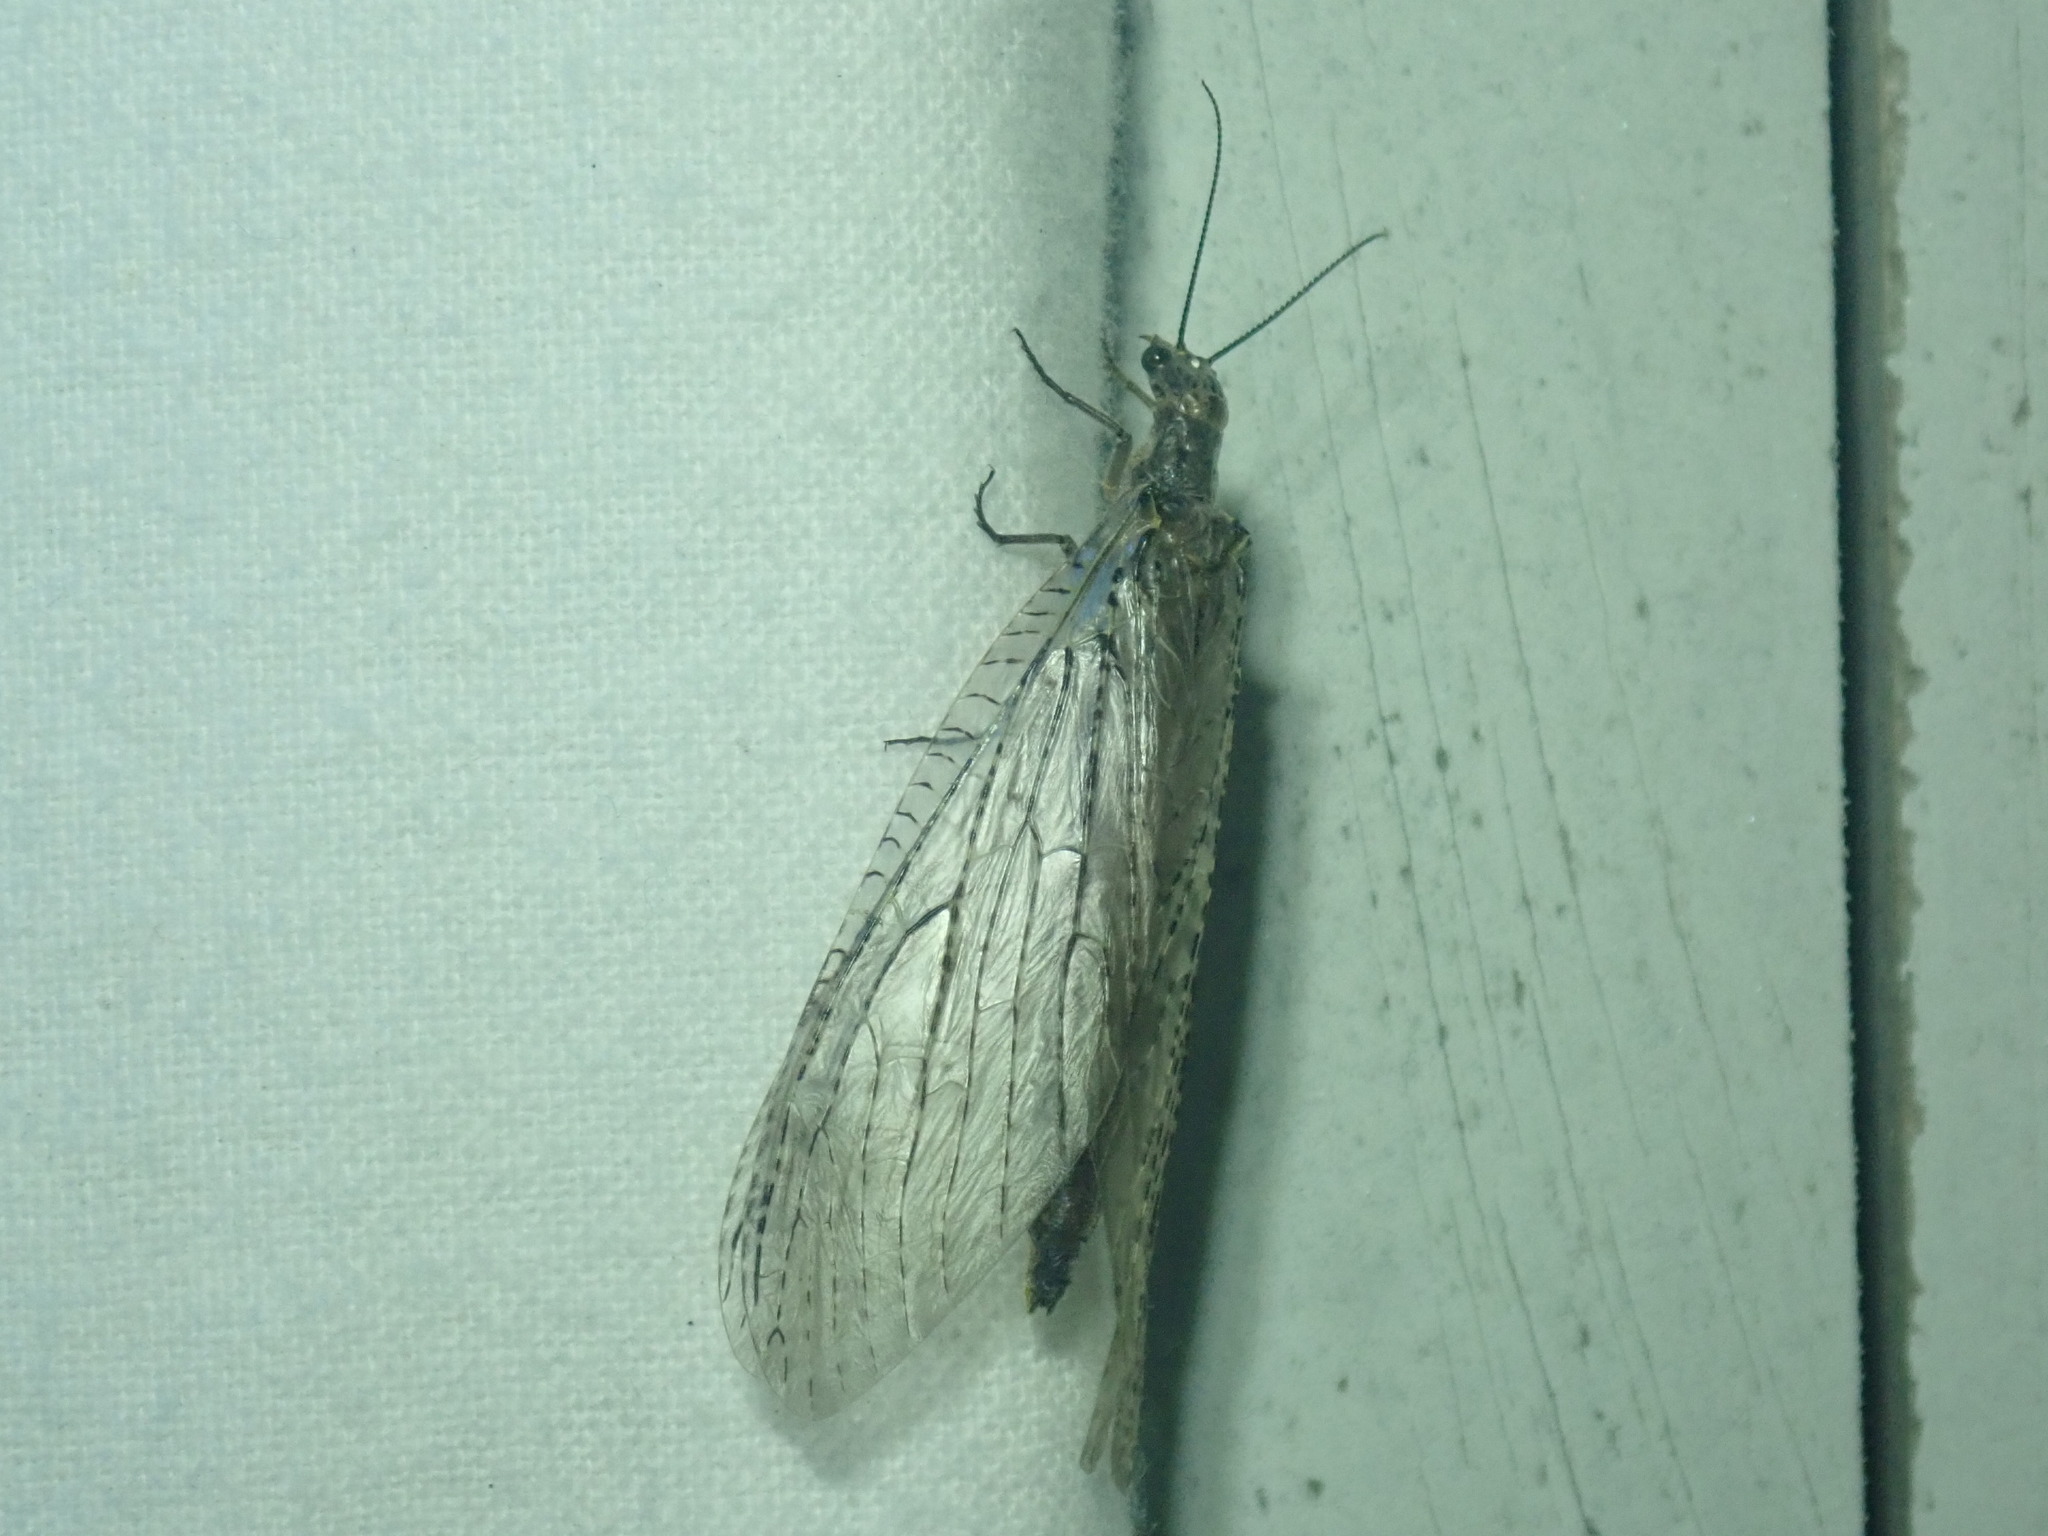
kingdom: Animalia
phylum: Arthropoda
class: Insecta
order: Megaloptera
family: Corydalidae
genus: Chauliodes
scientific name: Chauliodes rastricornis
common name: Spring fishfly
